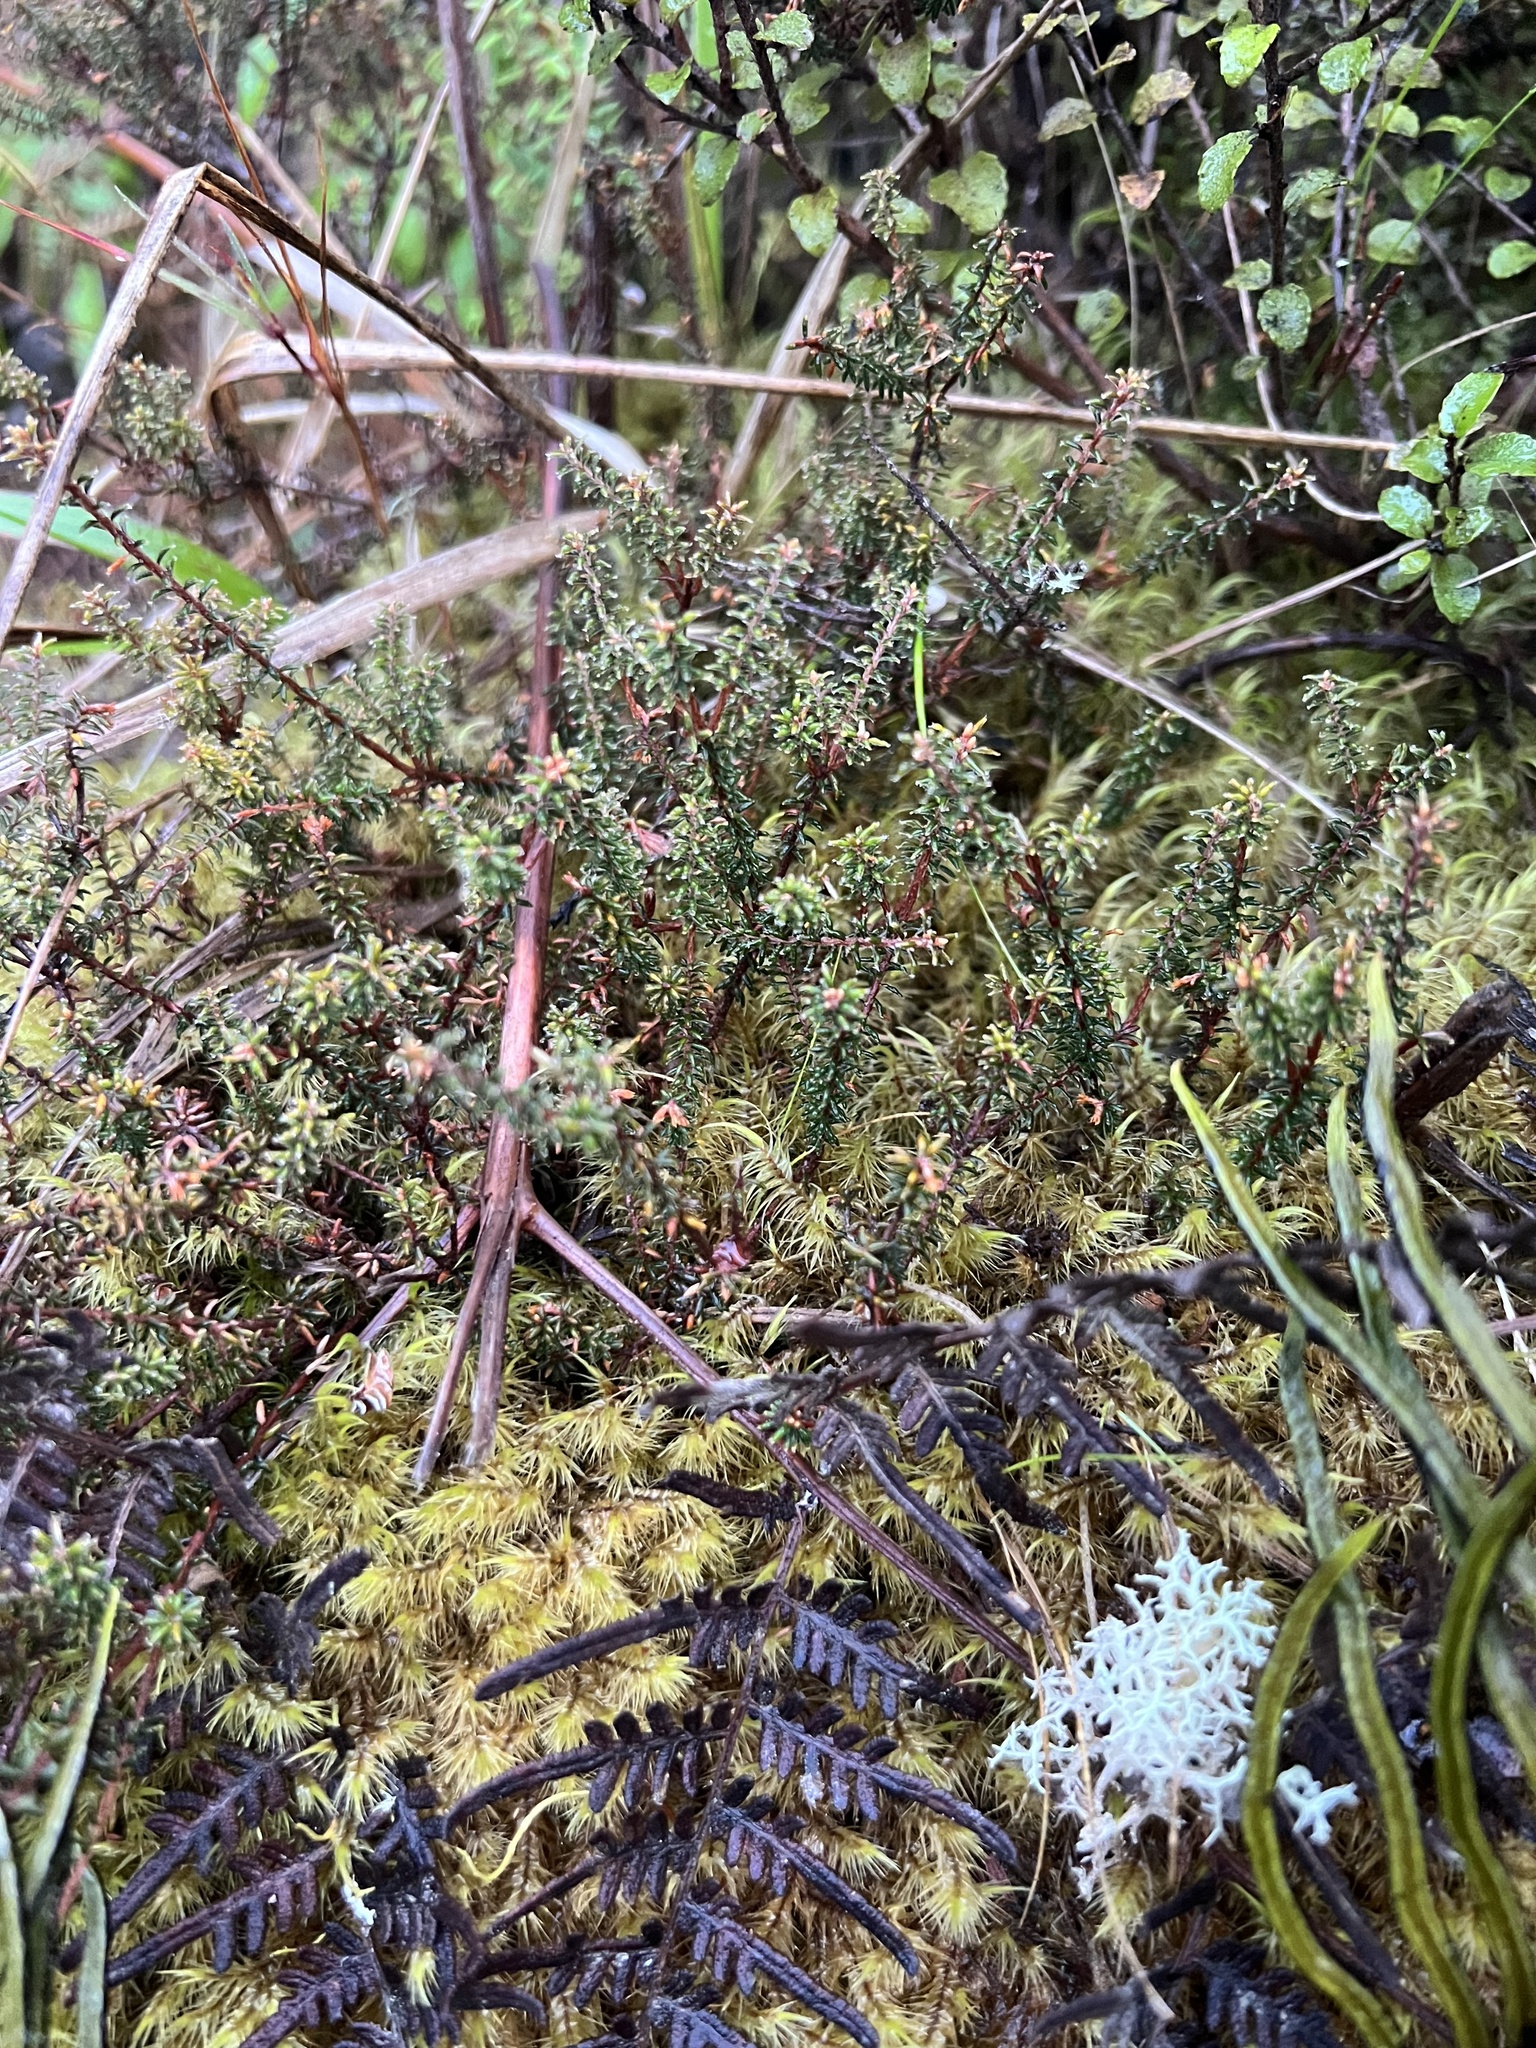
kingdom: Plantae
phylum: Tracheophyta
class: Magnoliopsida
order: Ericales
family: Ericaceae
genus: Androstoma
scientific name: Androstoma empetrifolia
